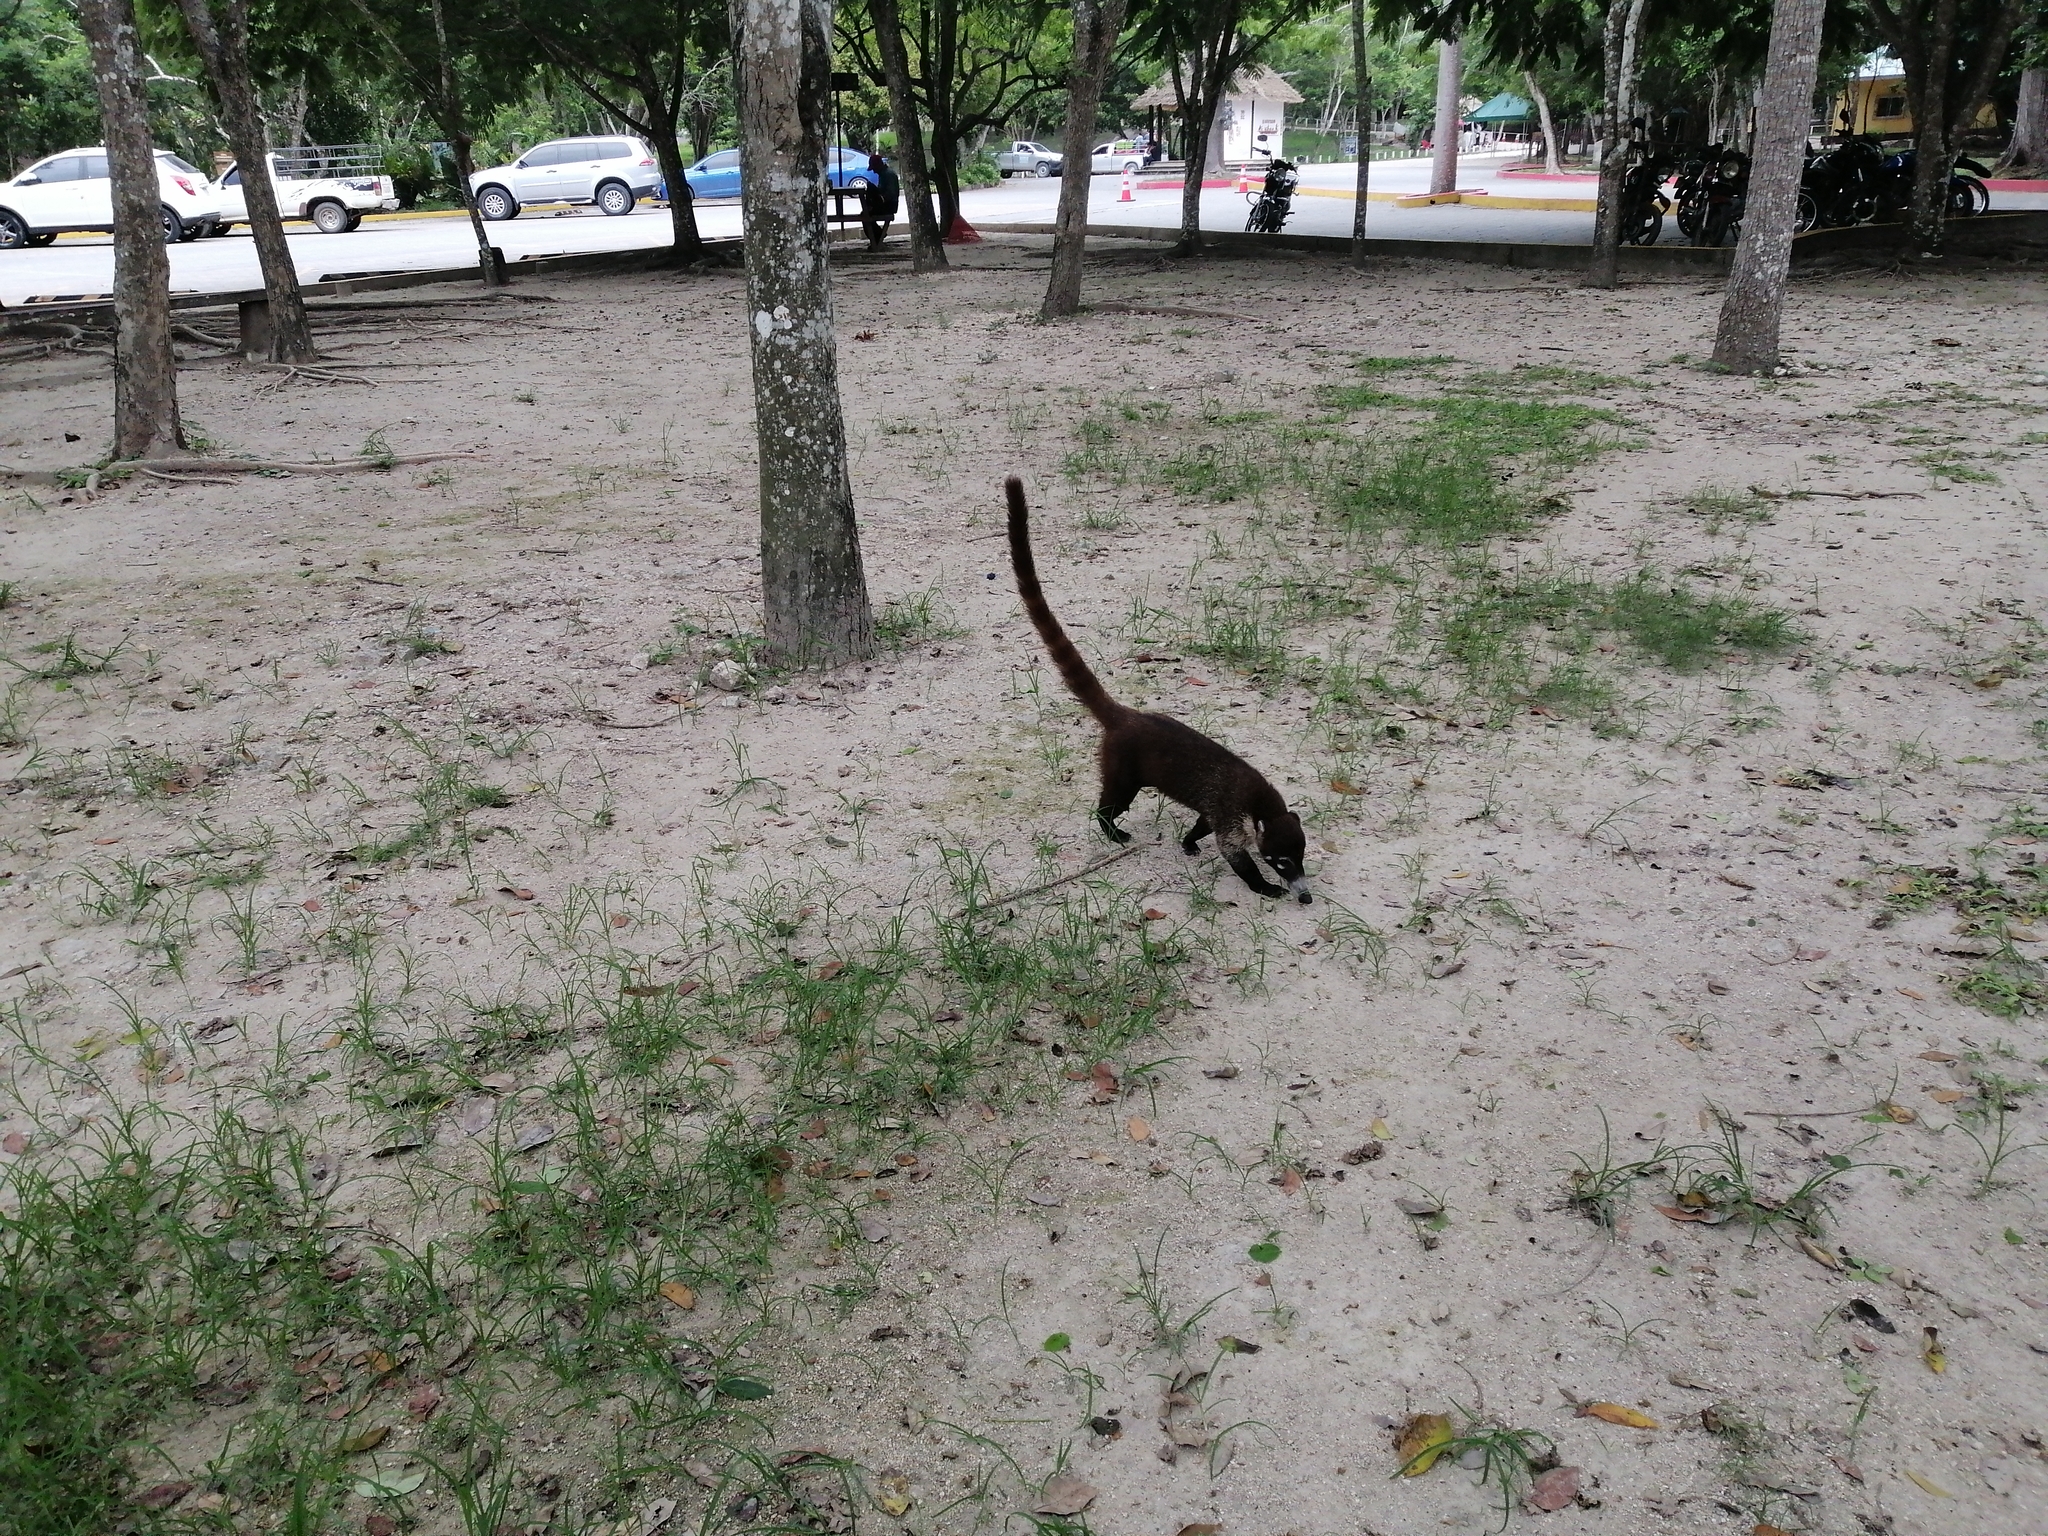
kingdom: Animalia
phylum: Chordata
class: Mammalia
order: Carnivora
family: Procyonidae
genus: Nasua
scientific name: Nasua narica
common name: White-nosed coati
